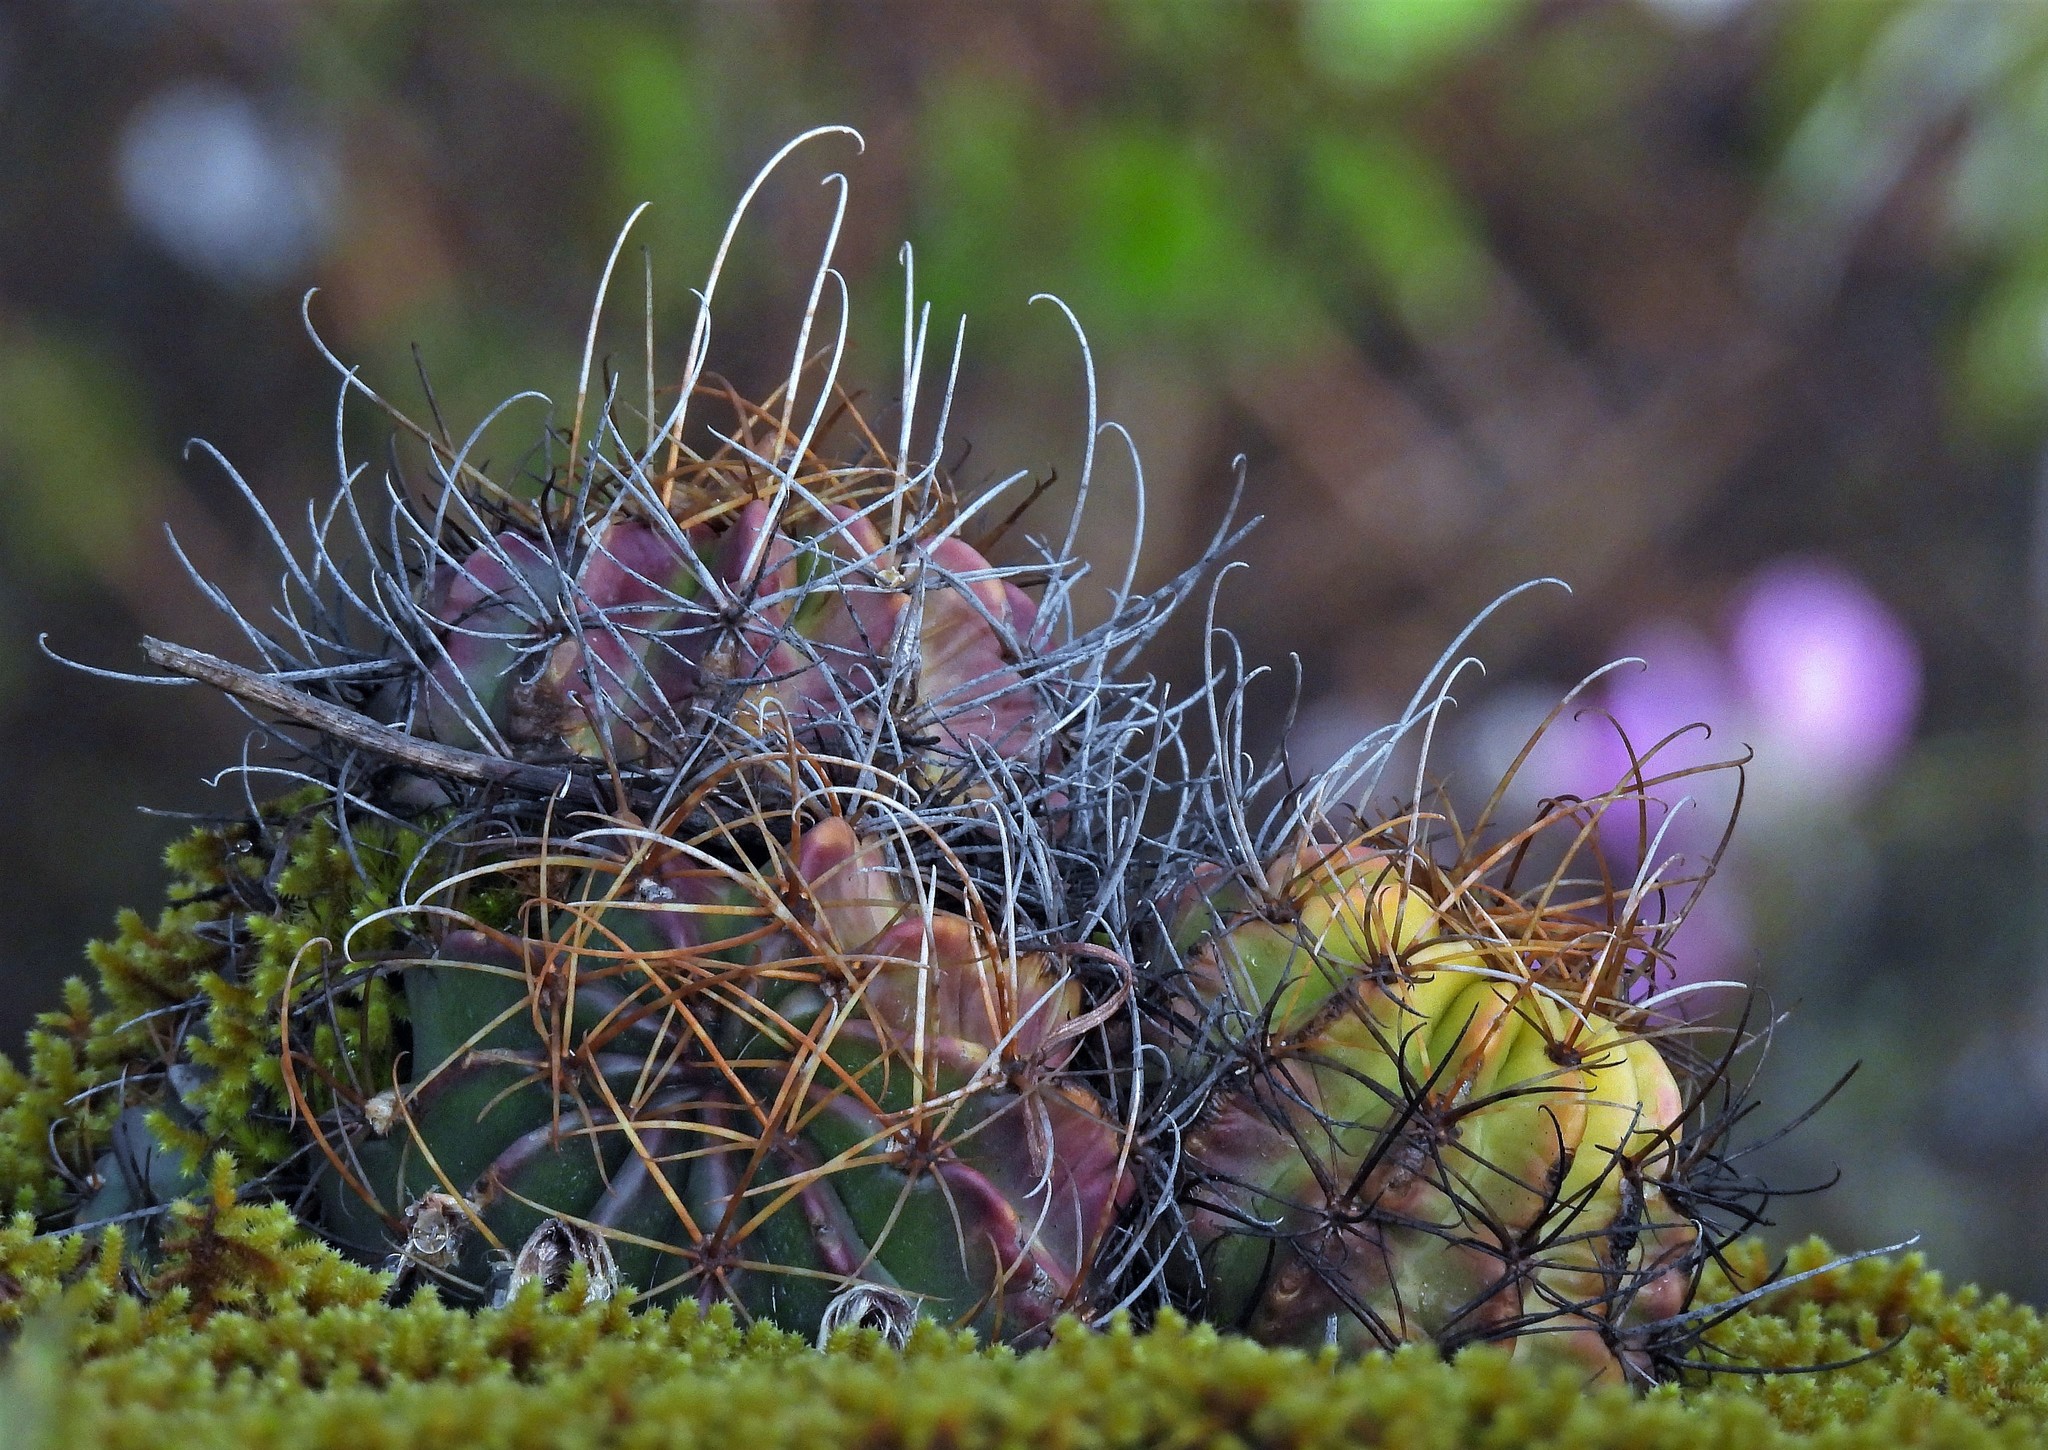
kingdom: Plantae
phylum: Tracheophyta
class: Magnoliopsida
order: Caryophyllales
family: Cactaceae
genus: Lobivia
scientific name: Lobivia ancistrophora
